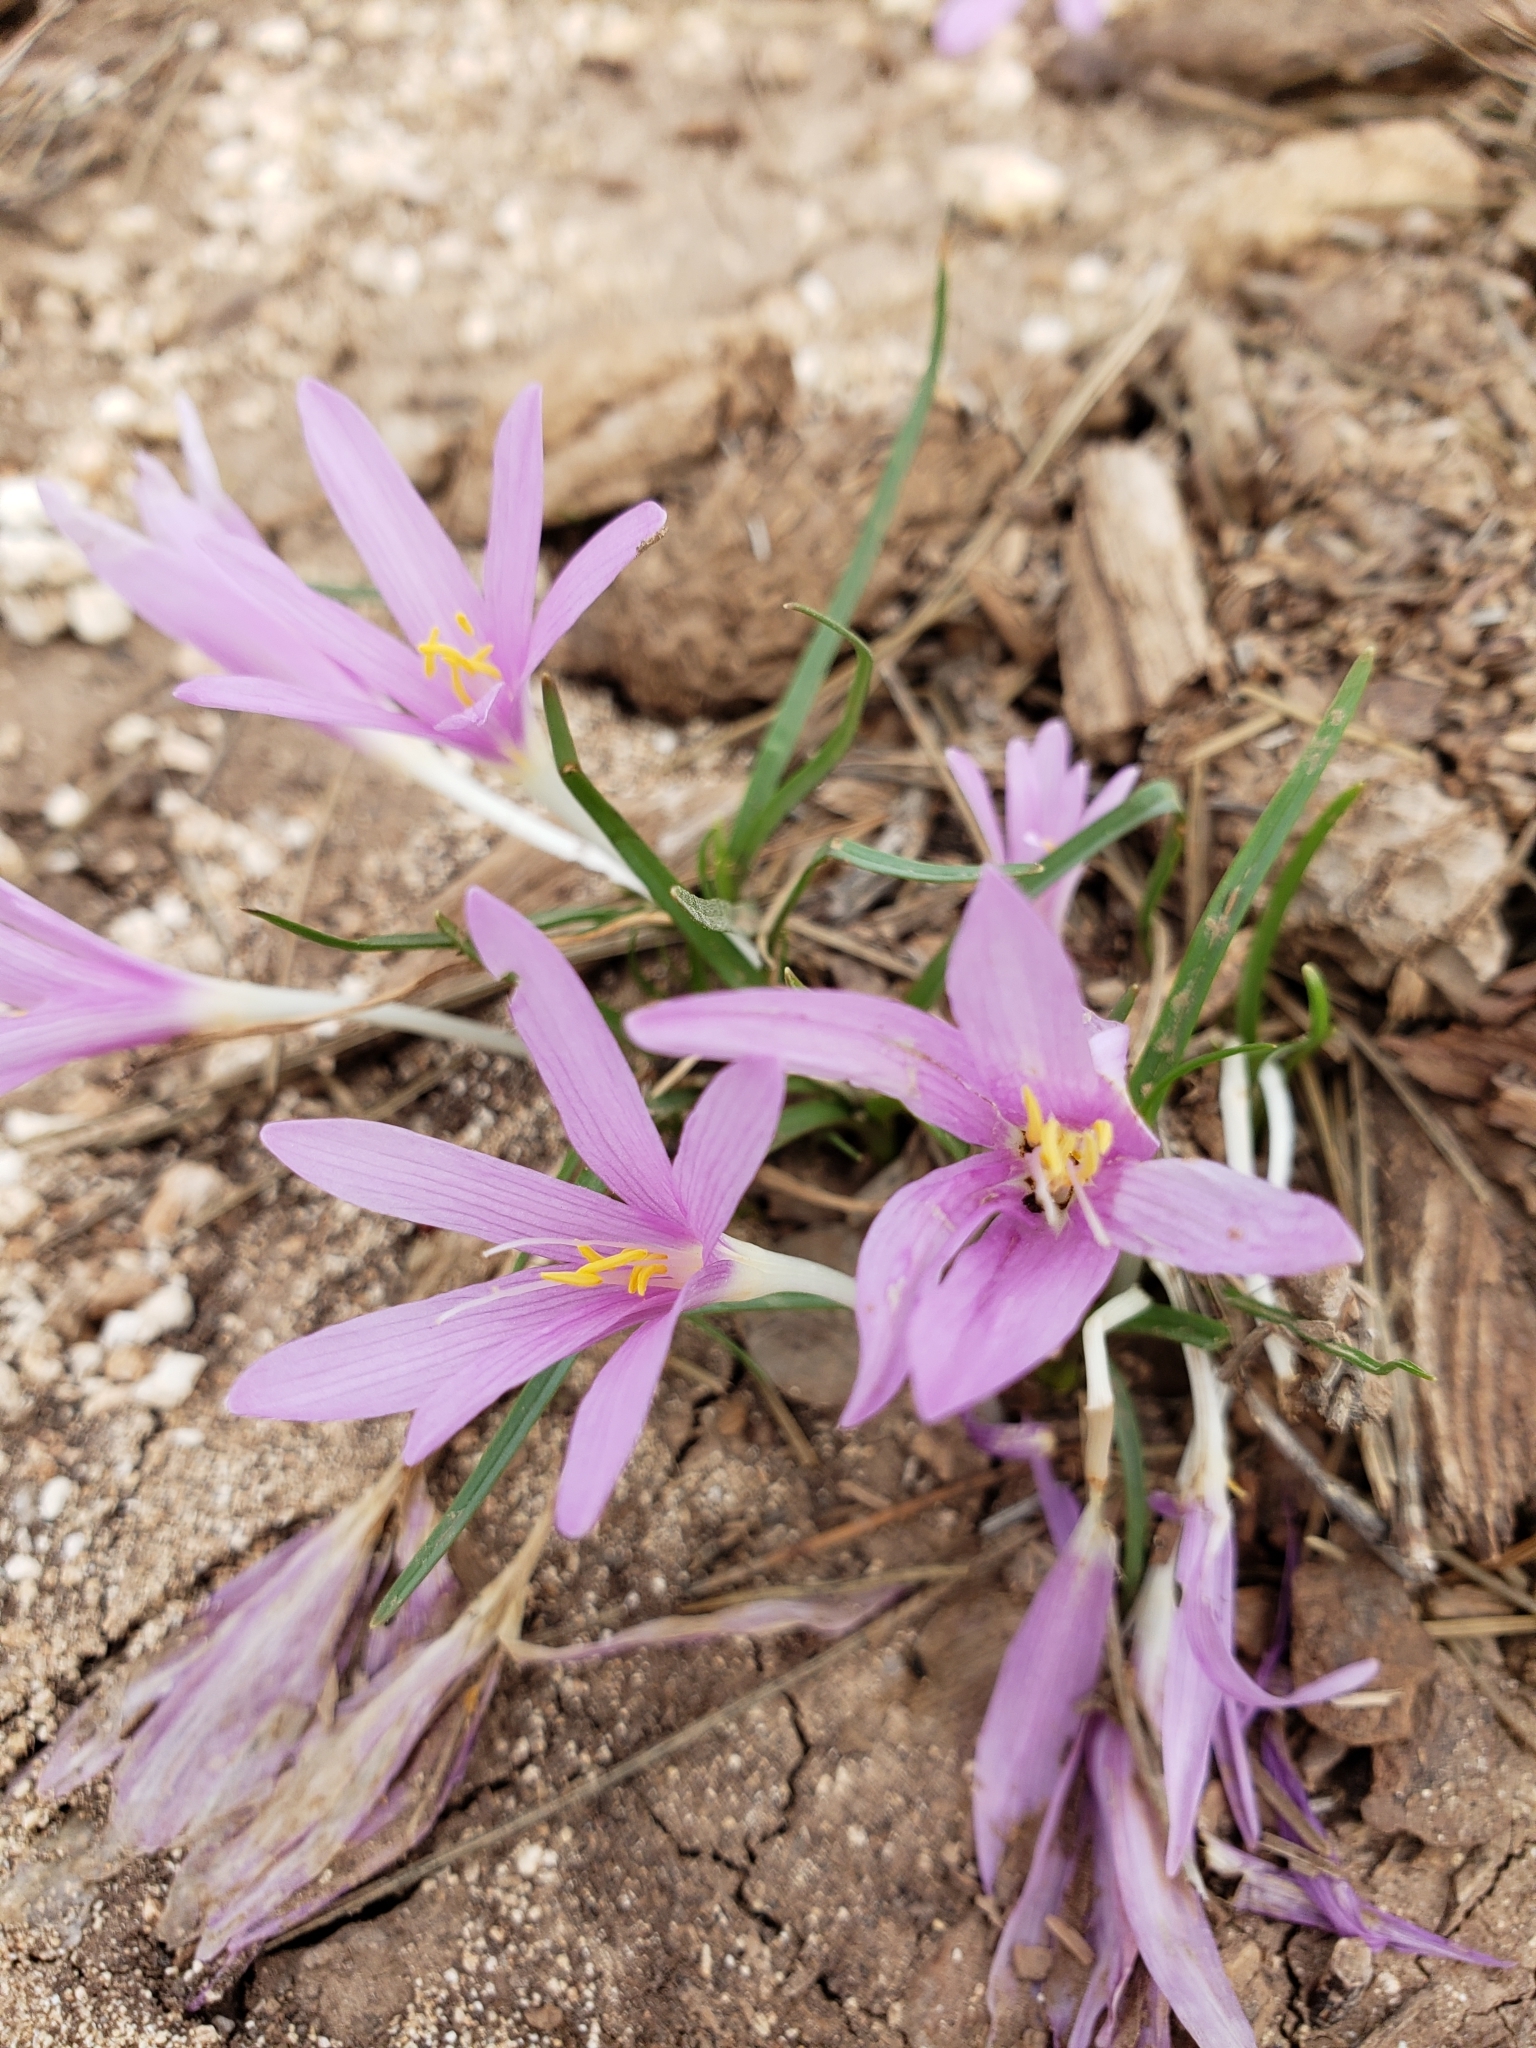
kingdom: Plantae
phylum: Tracheophyta
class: Liliopsida
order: Liliales
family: Colchicaceae
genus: Colchicum
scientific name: Colchicum stevenii
